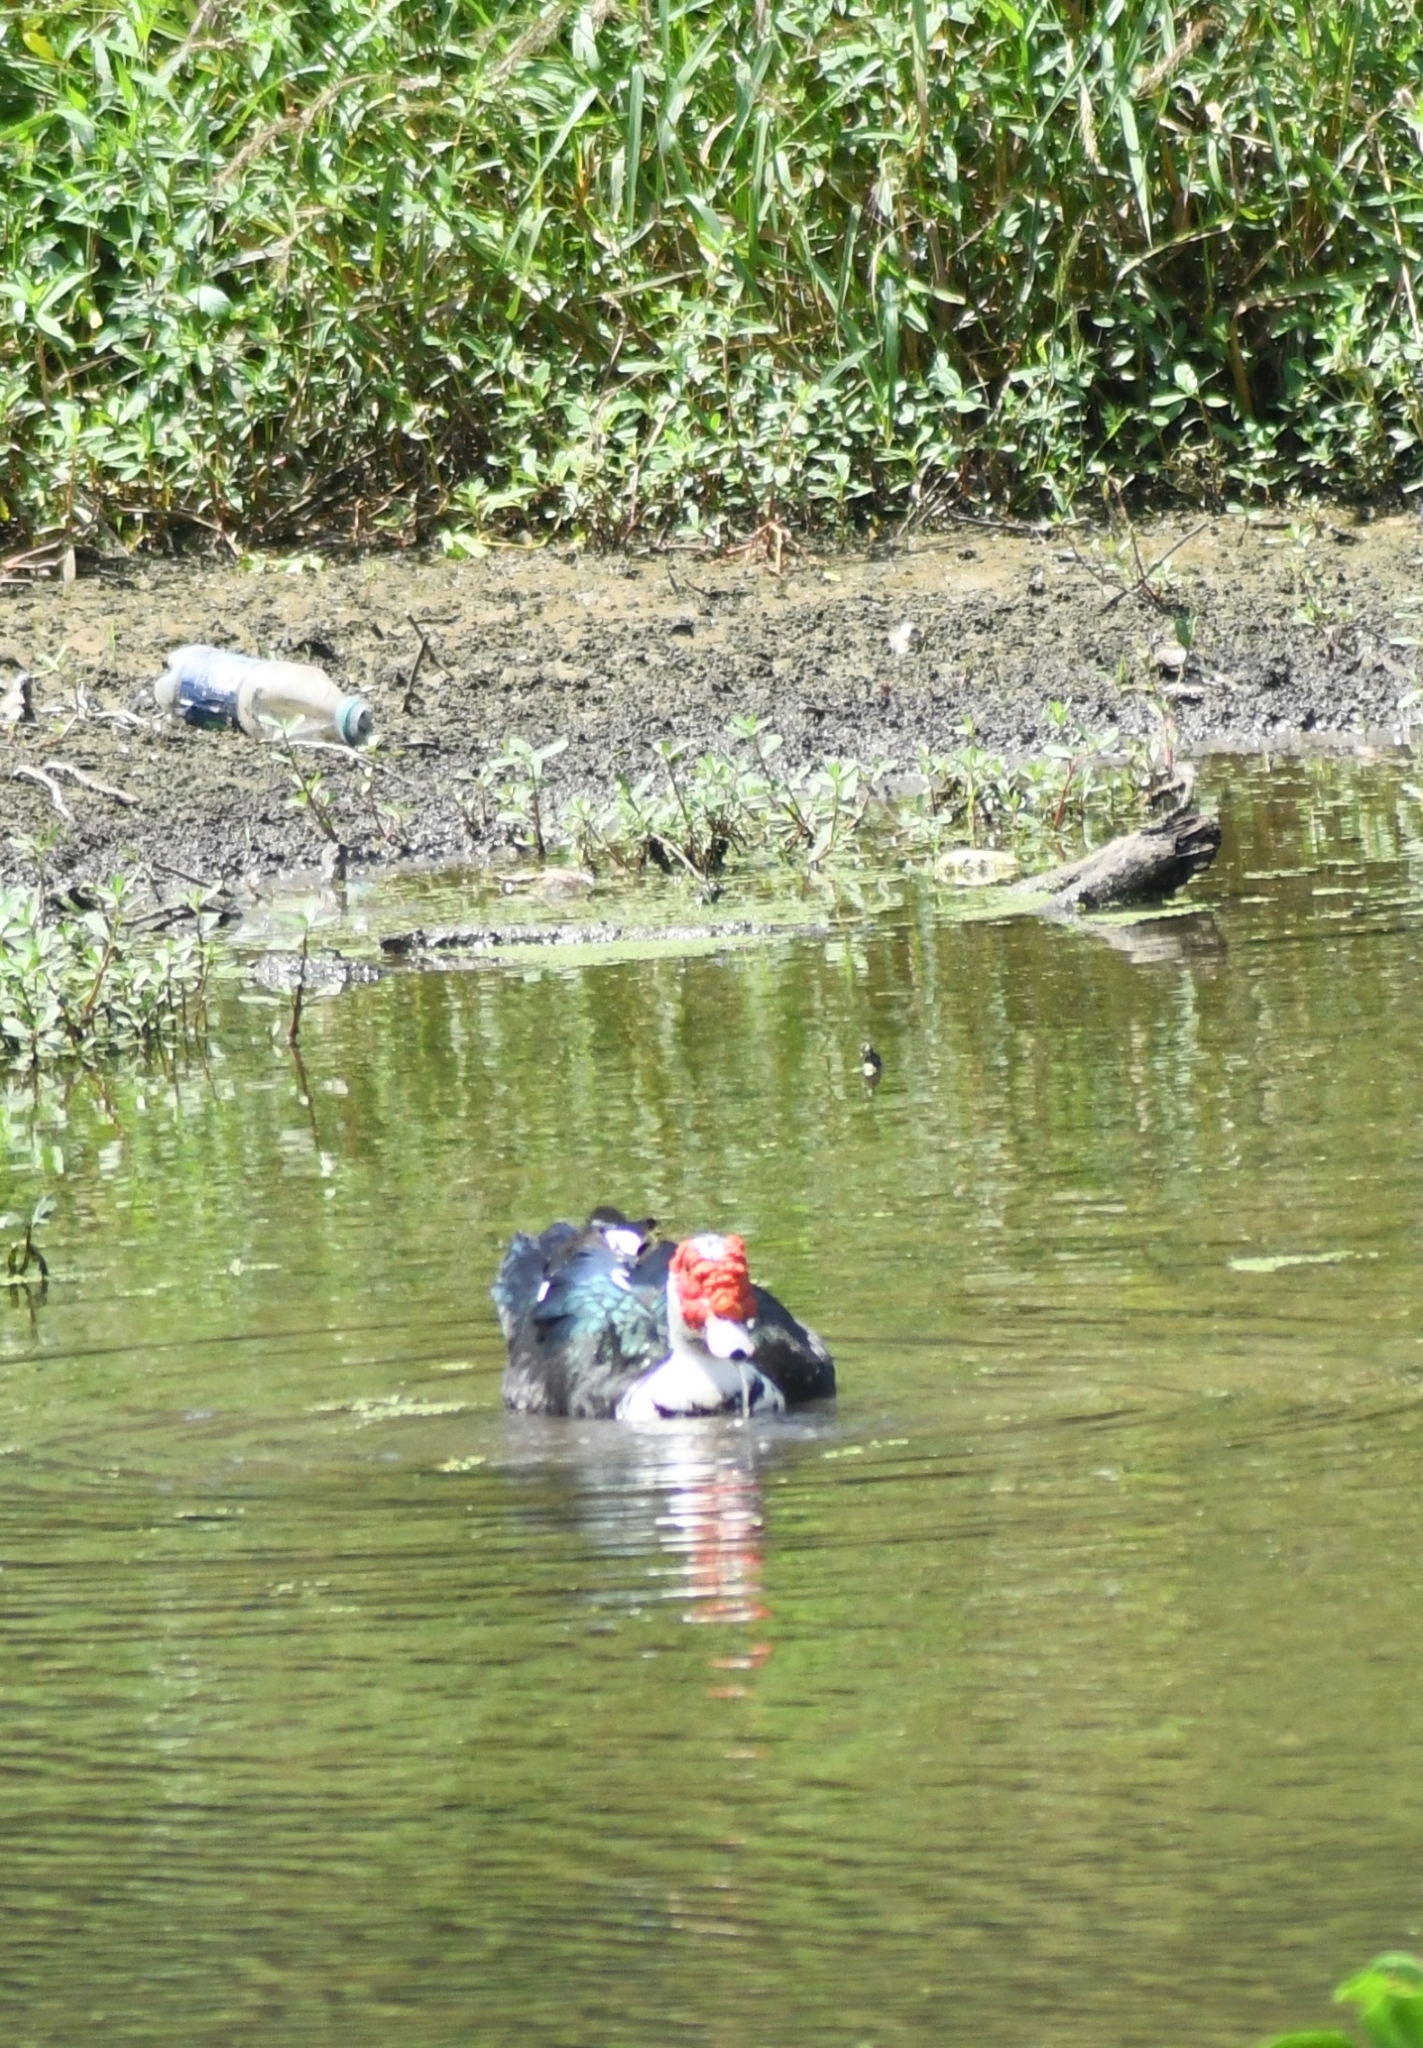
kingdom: Animalia
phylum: Chordata
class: Aves
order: Anseriformes
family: Anatidae
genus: Cairina
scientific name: Cairina moschata
